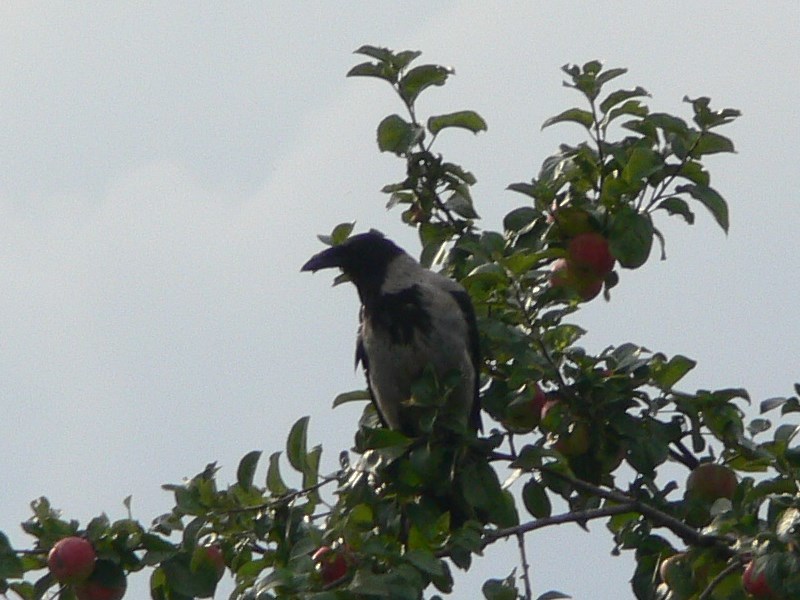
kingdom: Animalia
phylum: Chordata
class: Aves
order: Passeriformes
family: Corvidae
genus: Corvus
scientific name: Corvus cornix
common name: Hooded crow
